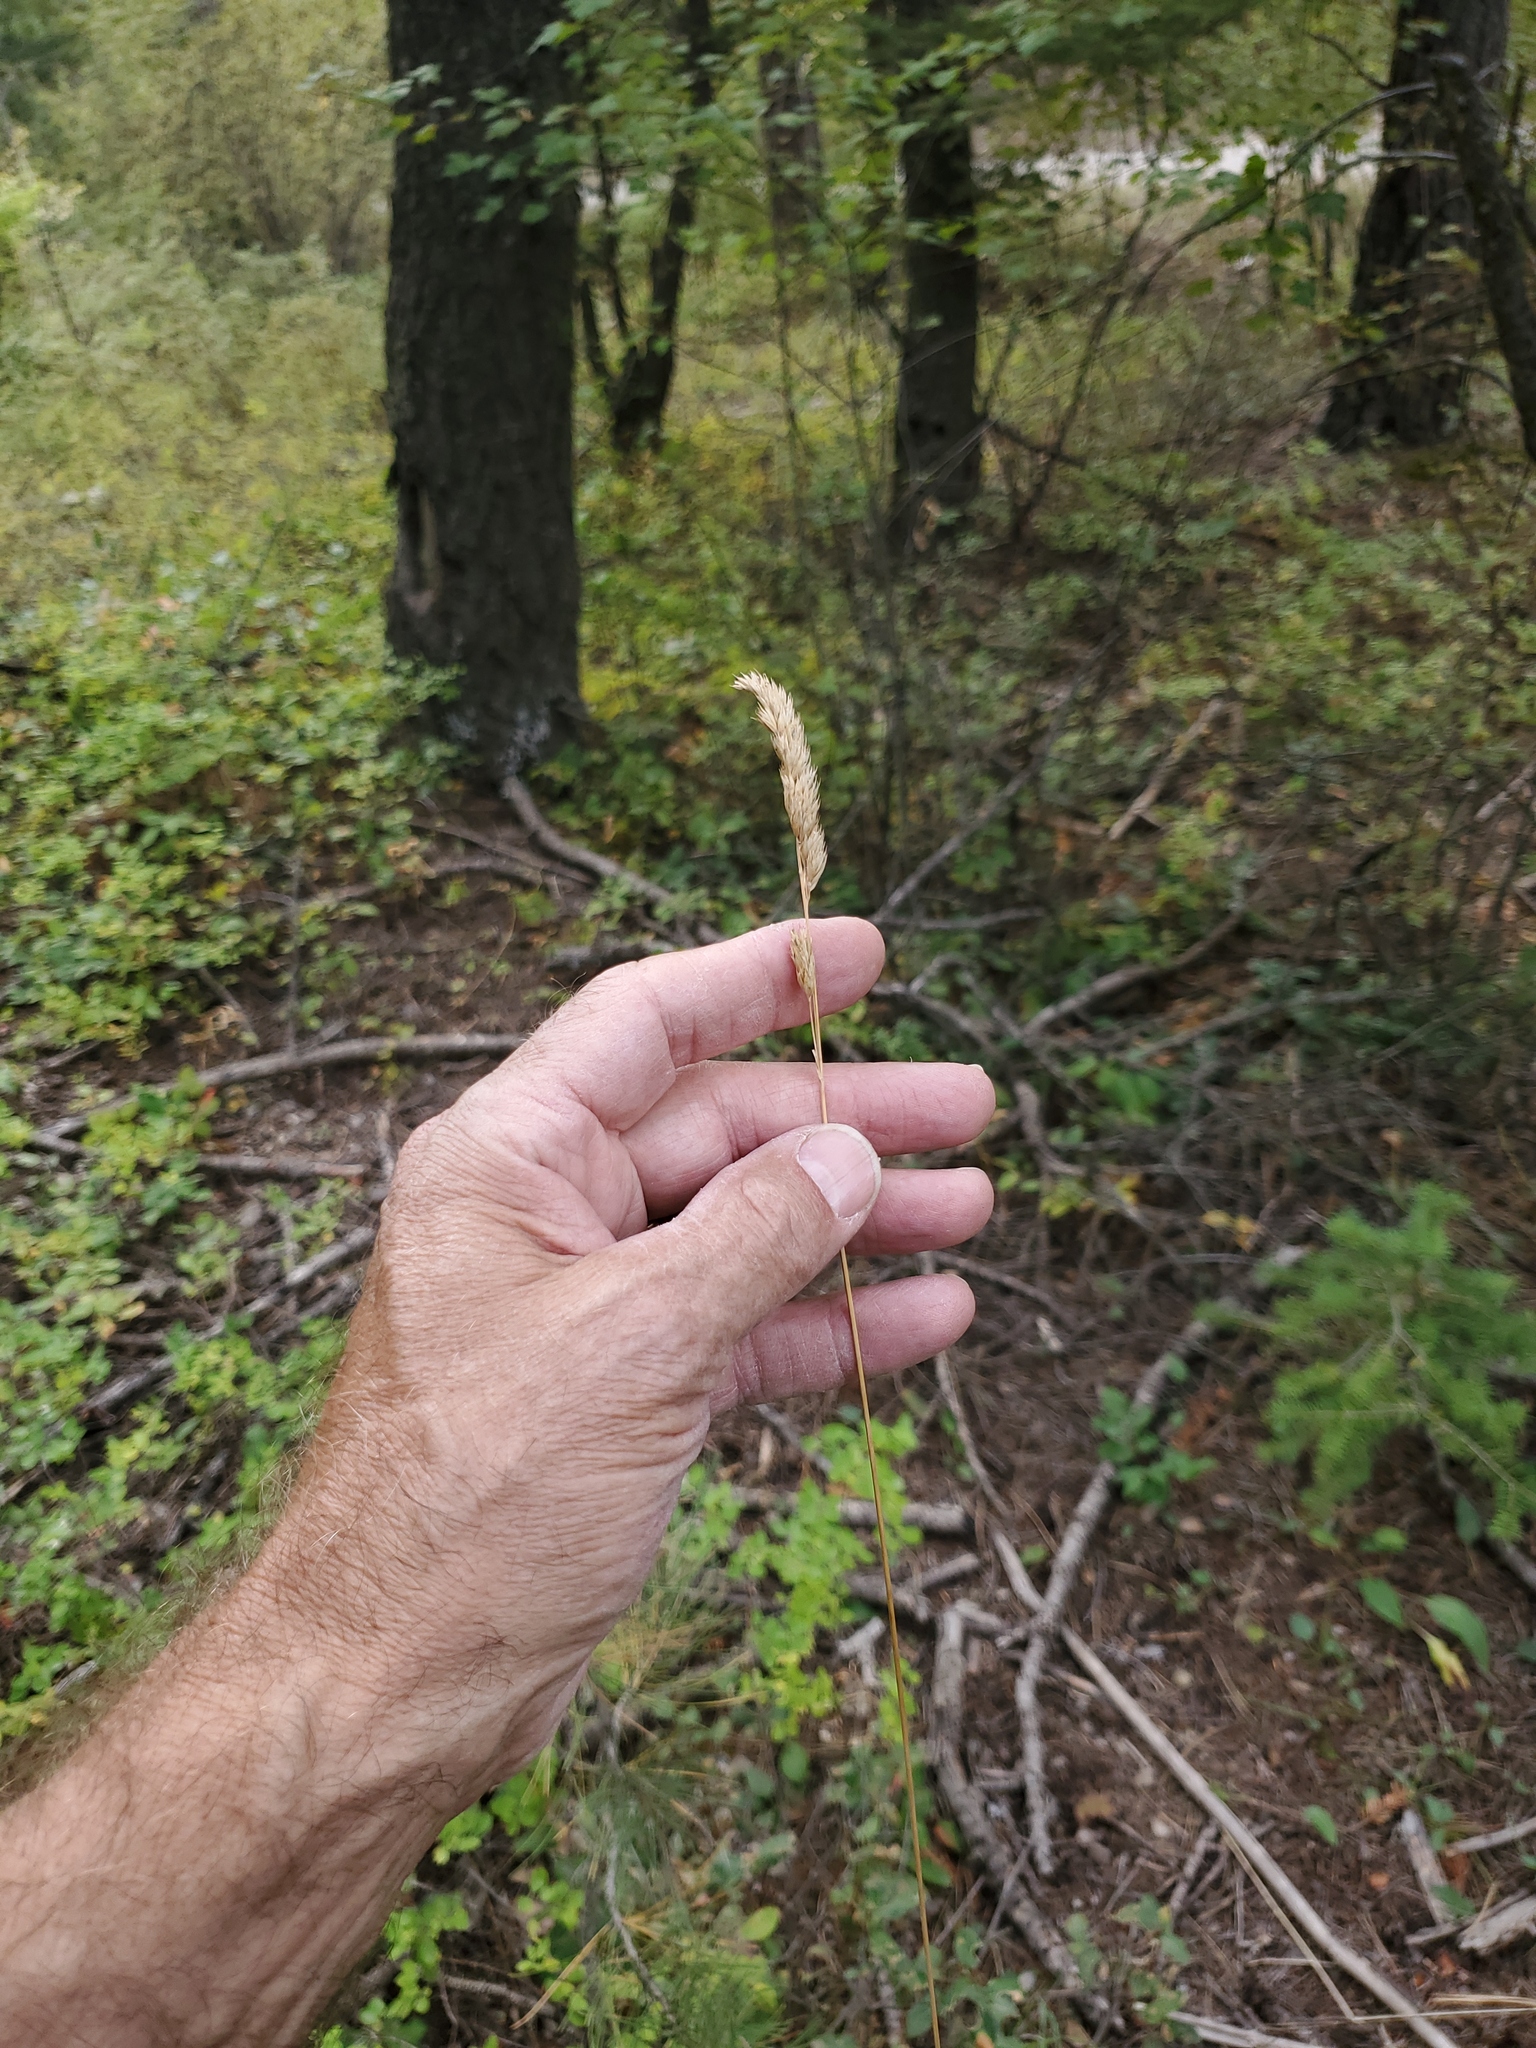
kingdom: Plantae
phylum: Tracheophyta
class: Liliopsida
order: Poales
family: Poaceae
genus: Dactylis
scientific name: Dactylis glomerata
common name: Orchardgrass
